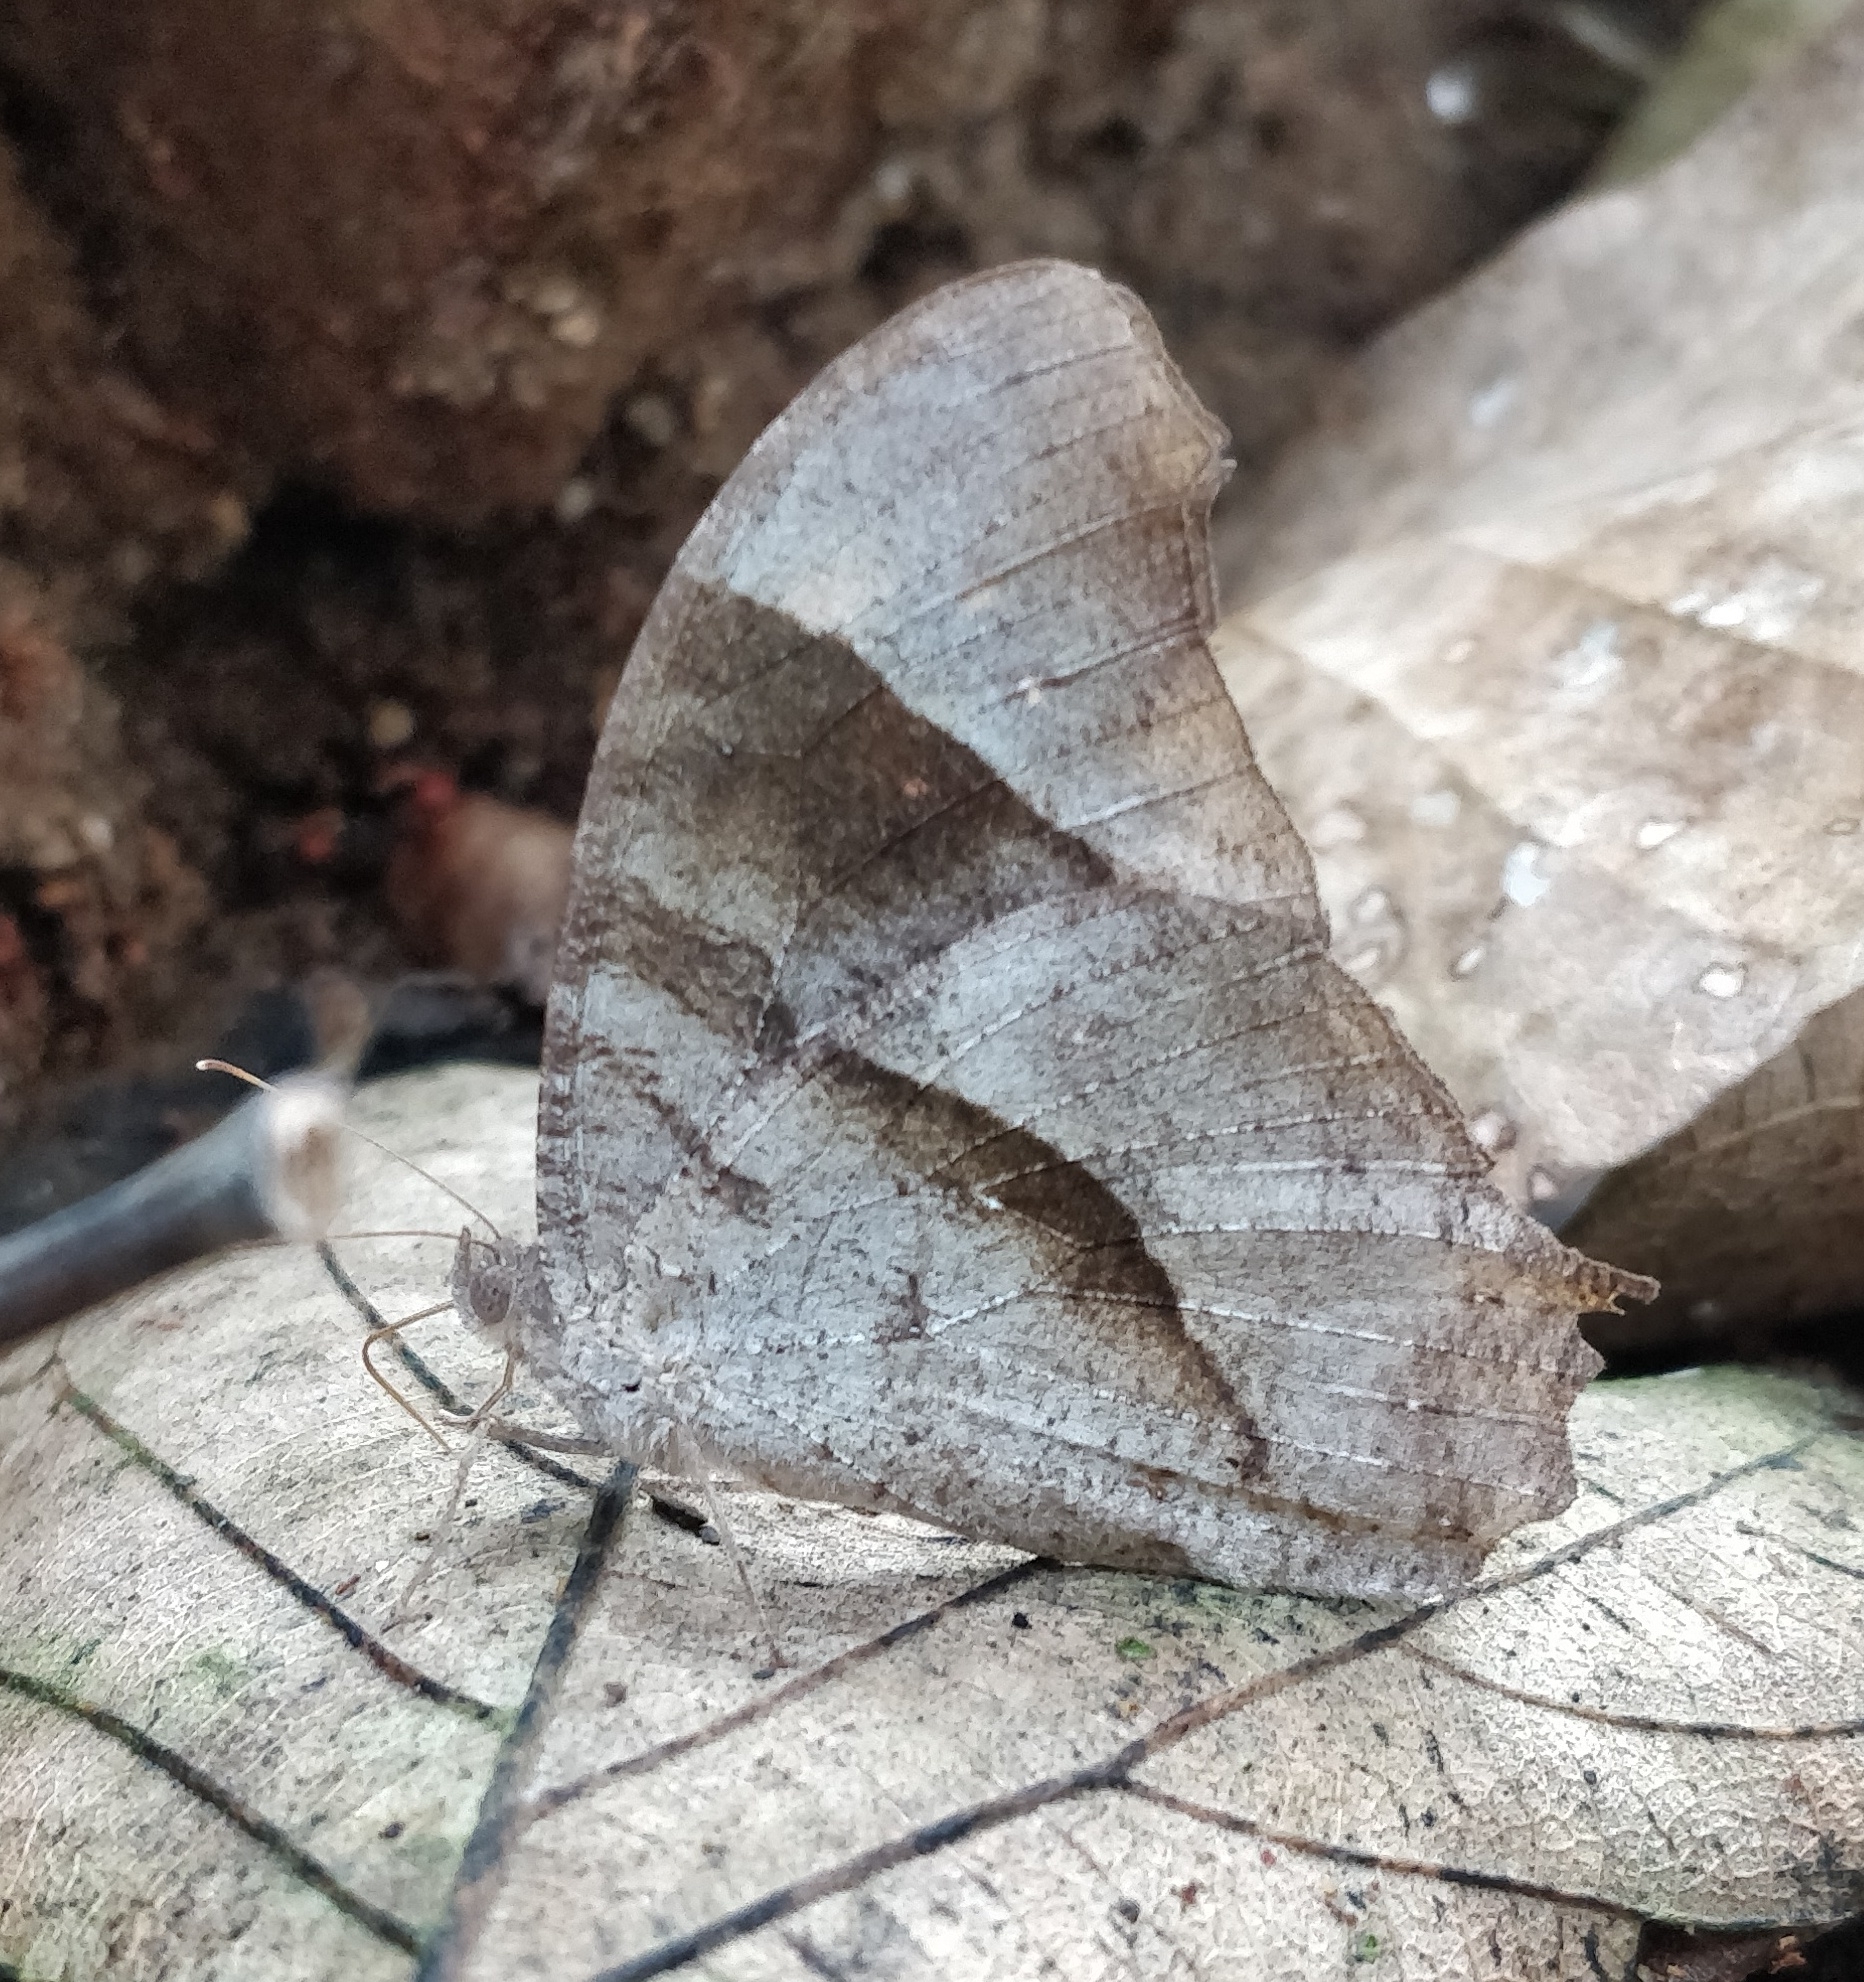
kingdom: Animalia
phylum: Arthropoda
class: Insecta
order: Lepidoptera
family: Nymphalidae
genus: Melanitis
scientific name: Melanitis leda
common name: Twilight brown
